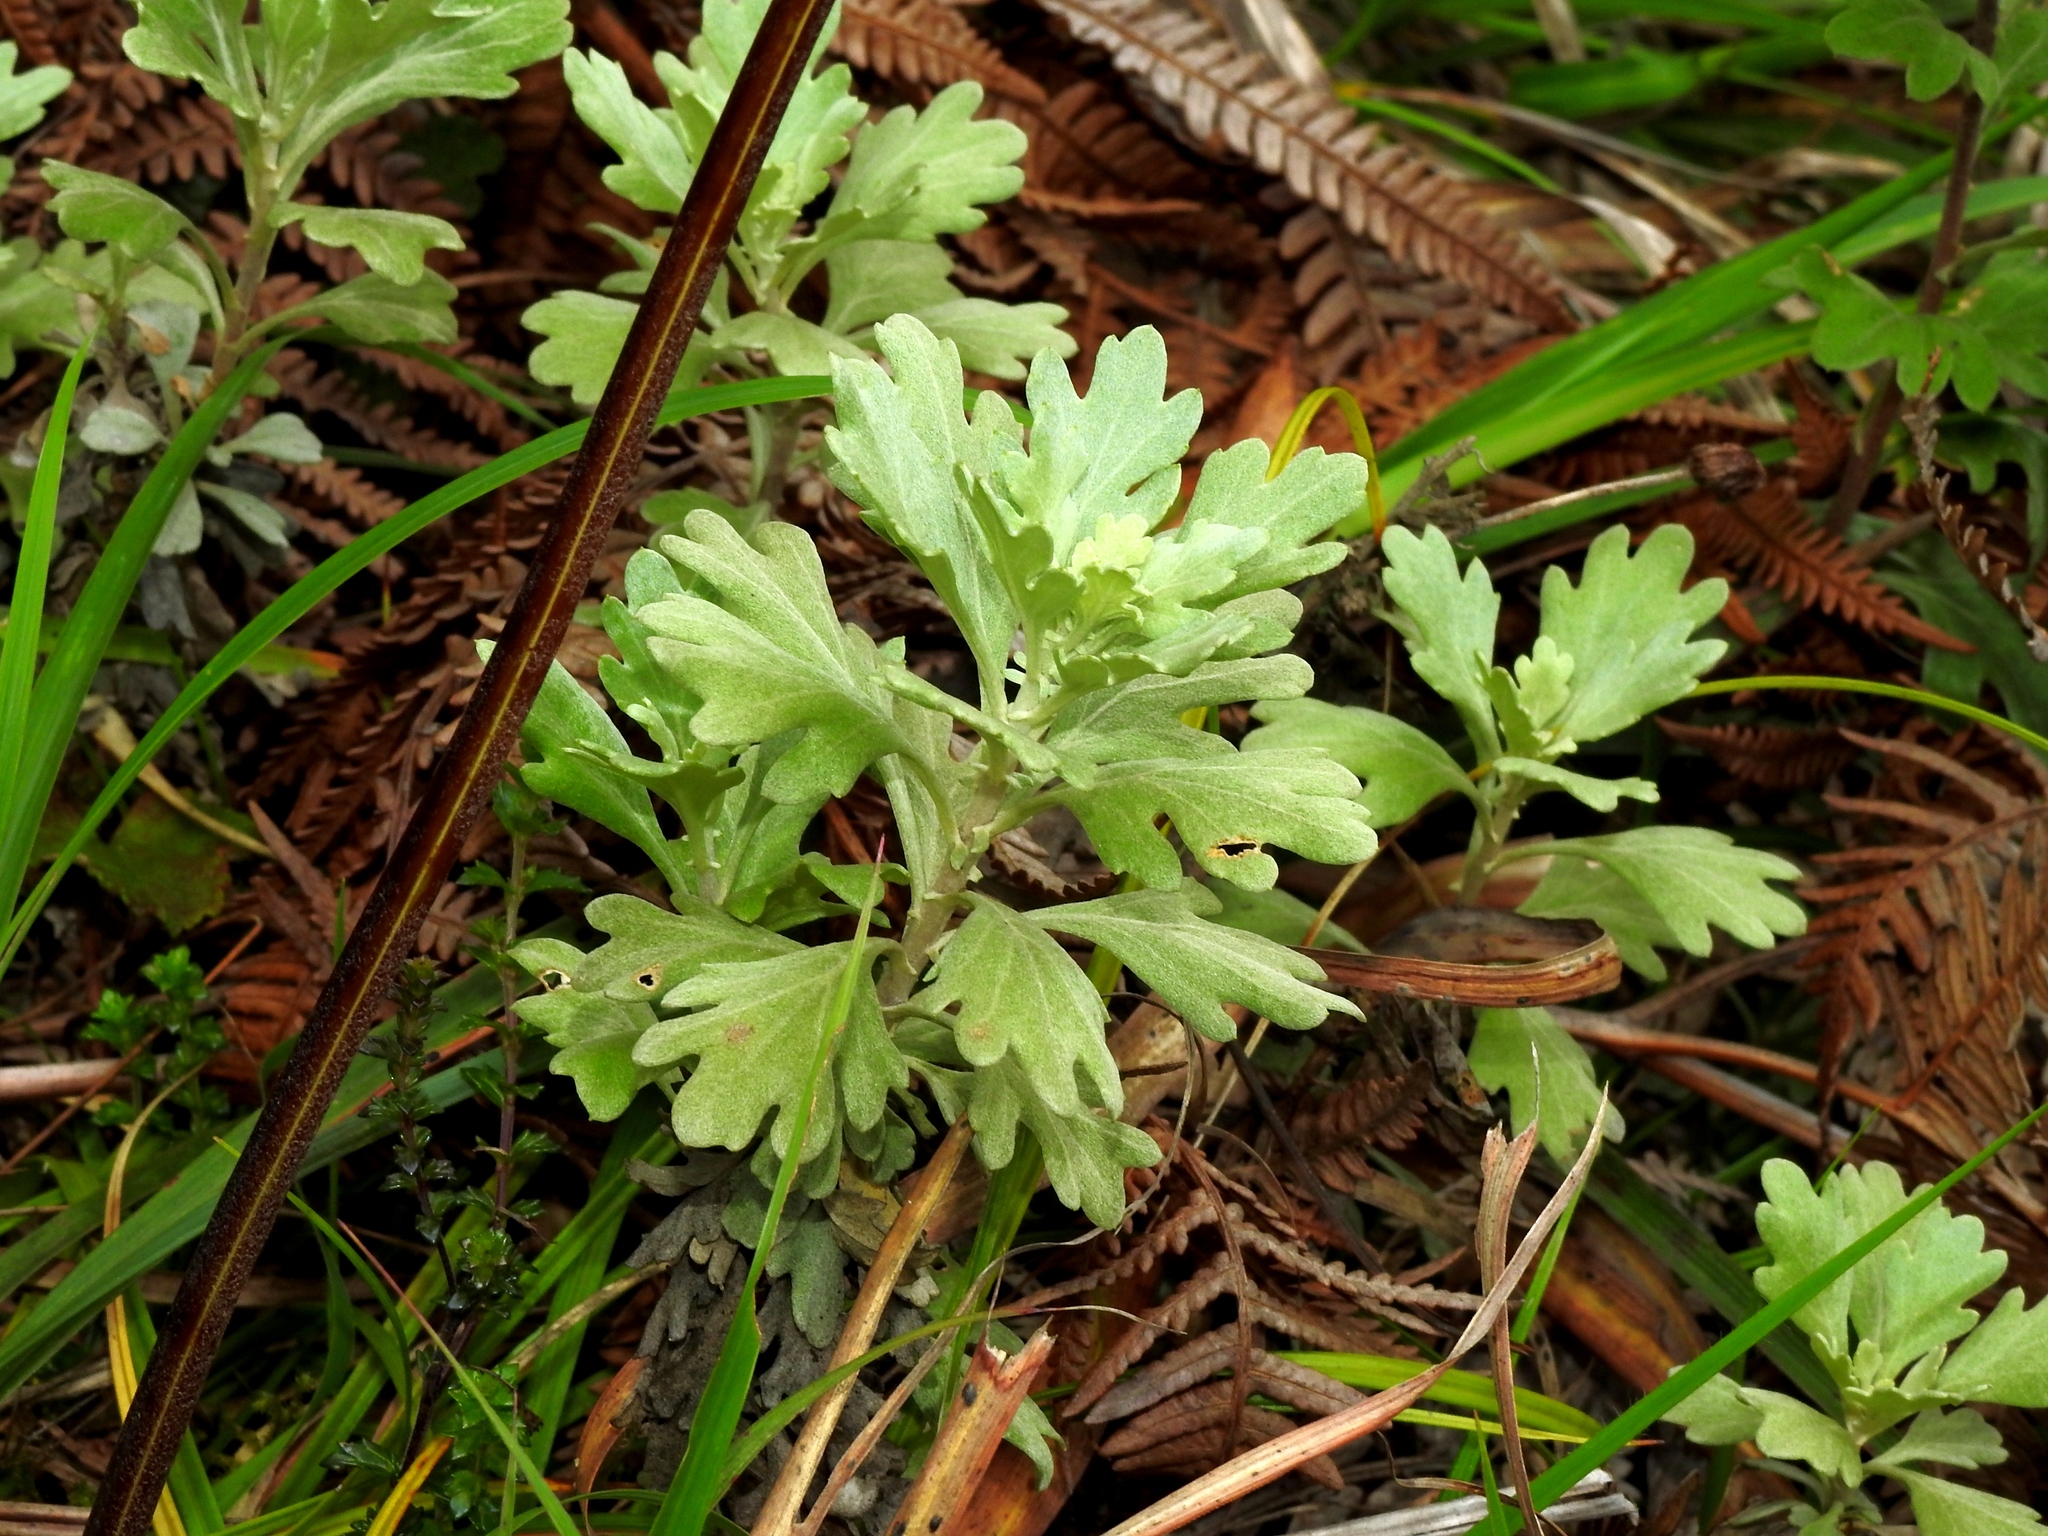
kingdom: Plantae
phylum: Tracheophyta
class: Magnoliopsida
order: Asterales
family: Asteraceae
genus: Chrysanthemum
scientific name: Chrysanthemum morii
